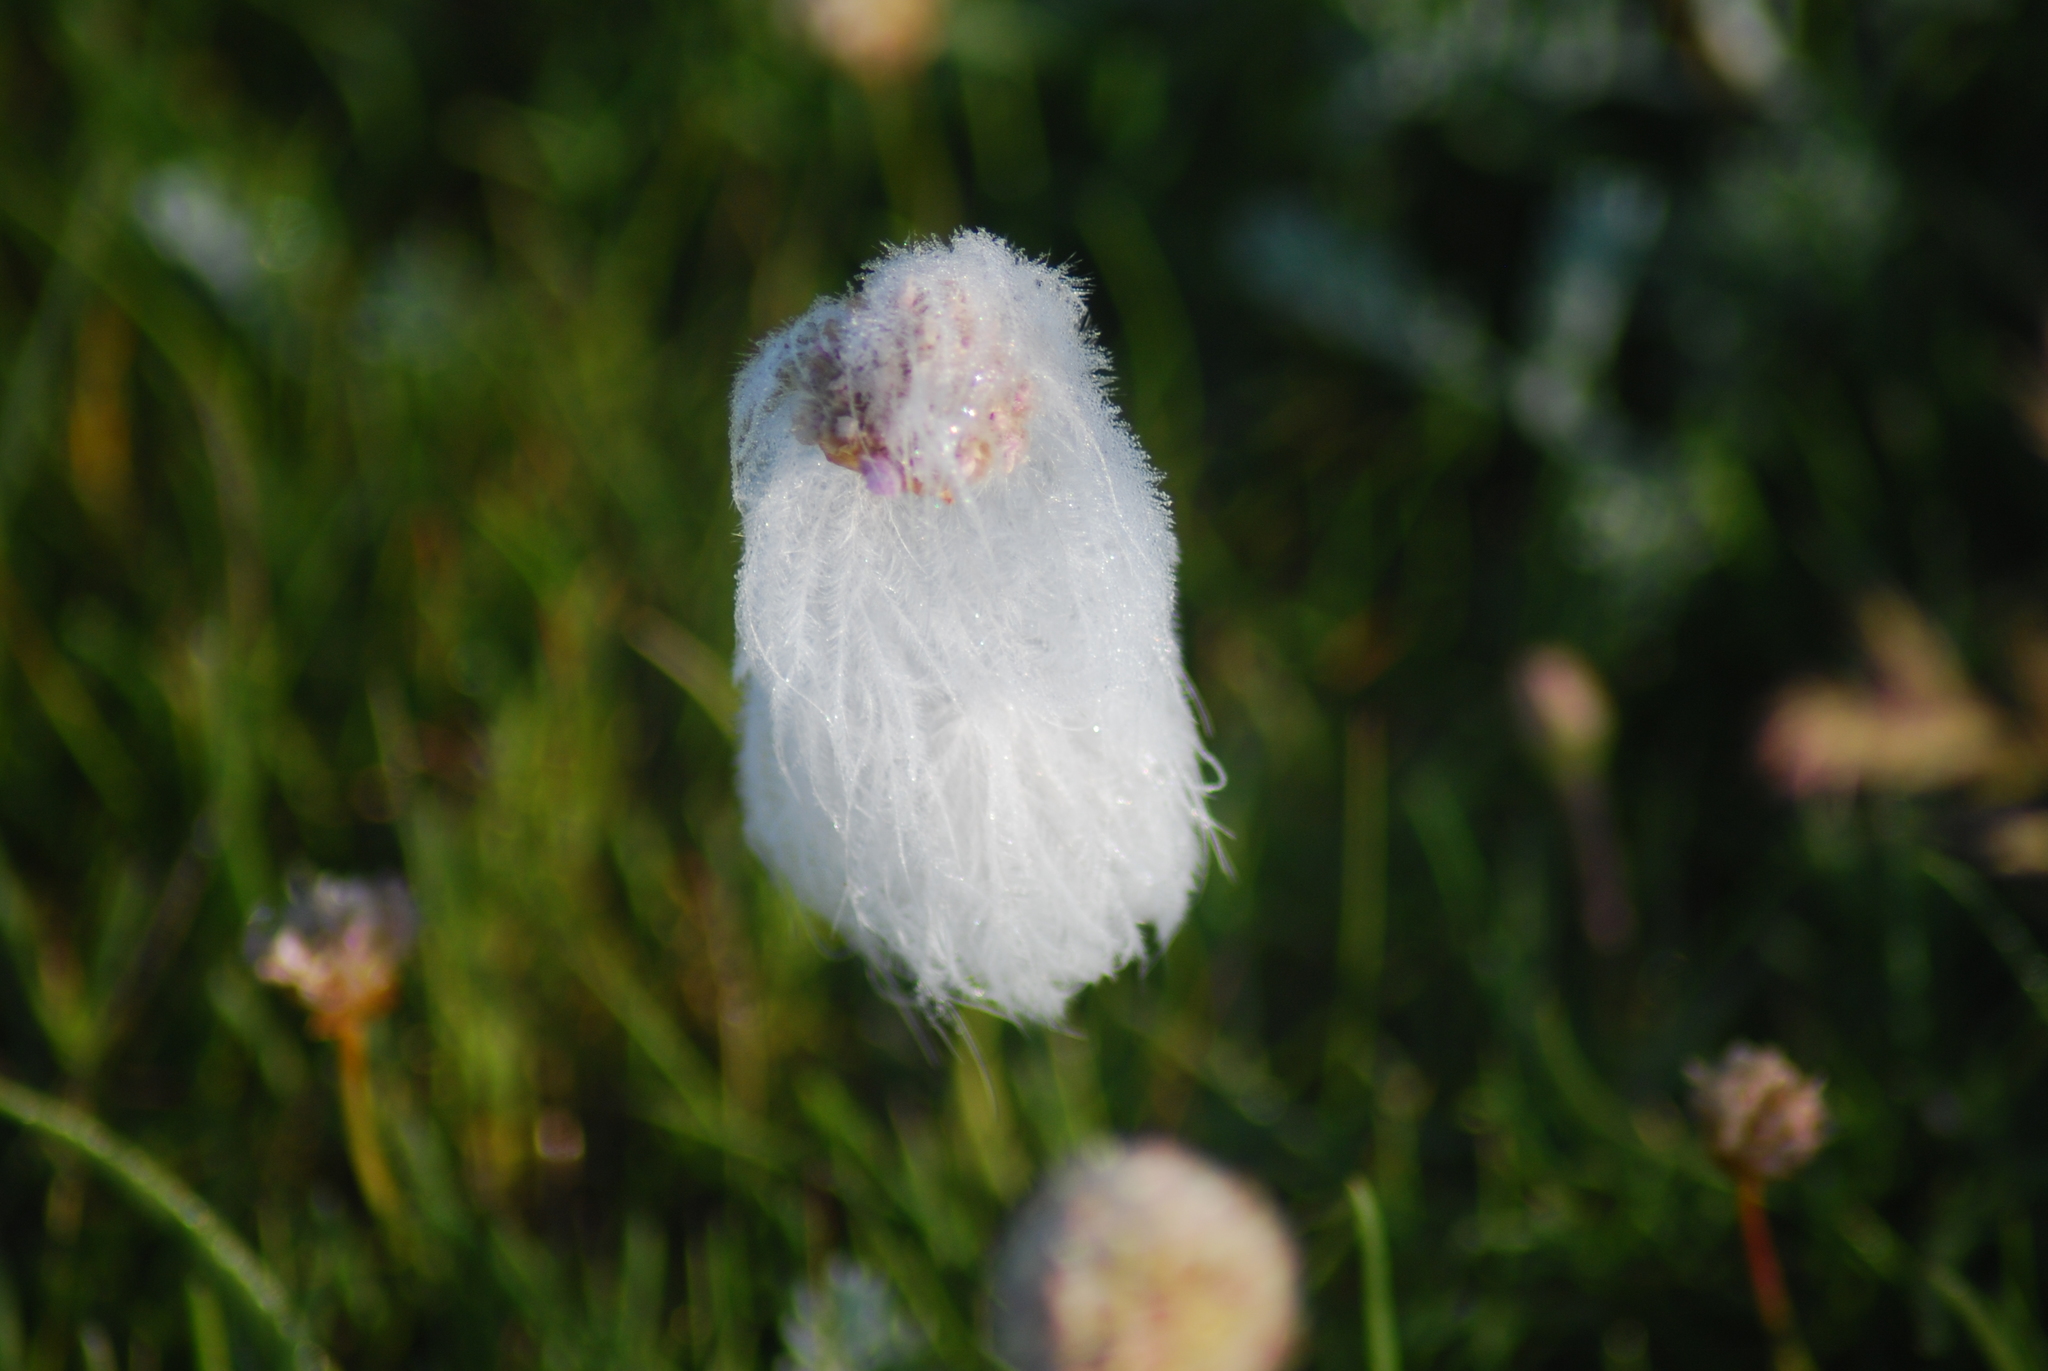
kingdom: Plantae
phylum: Tracheophyta
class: Magnoliopsida
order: Caryophyllales
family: Plumbaginaceae
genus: Armeria
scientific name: Armeria maritima
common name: Thrift
